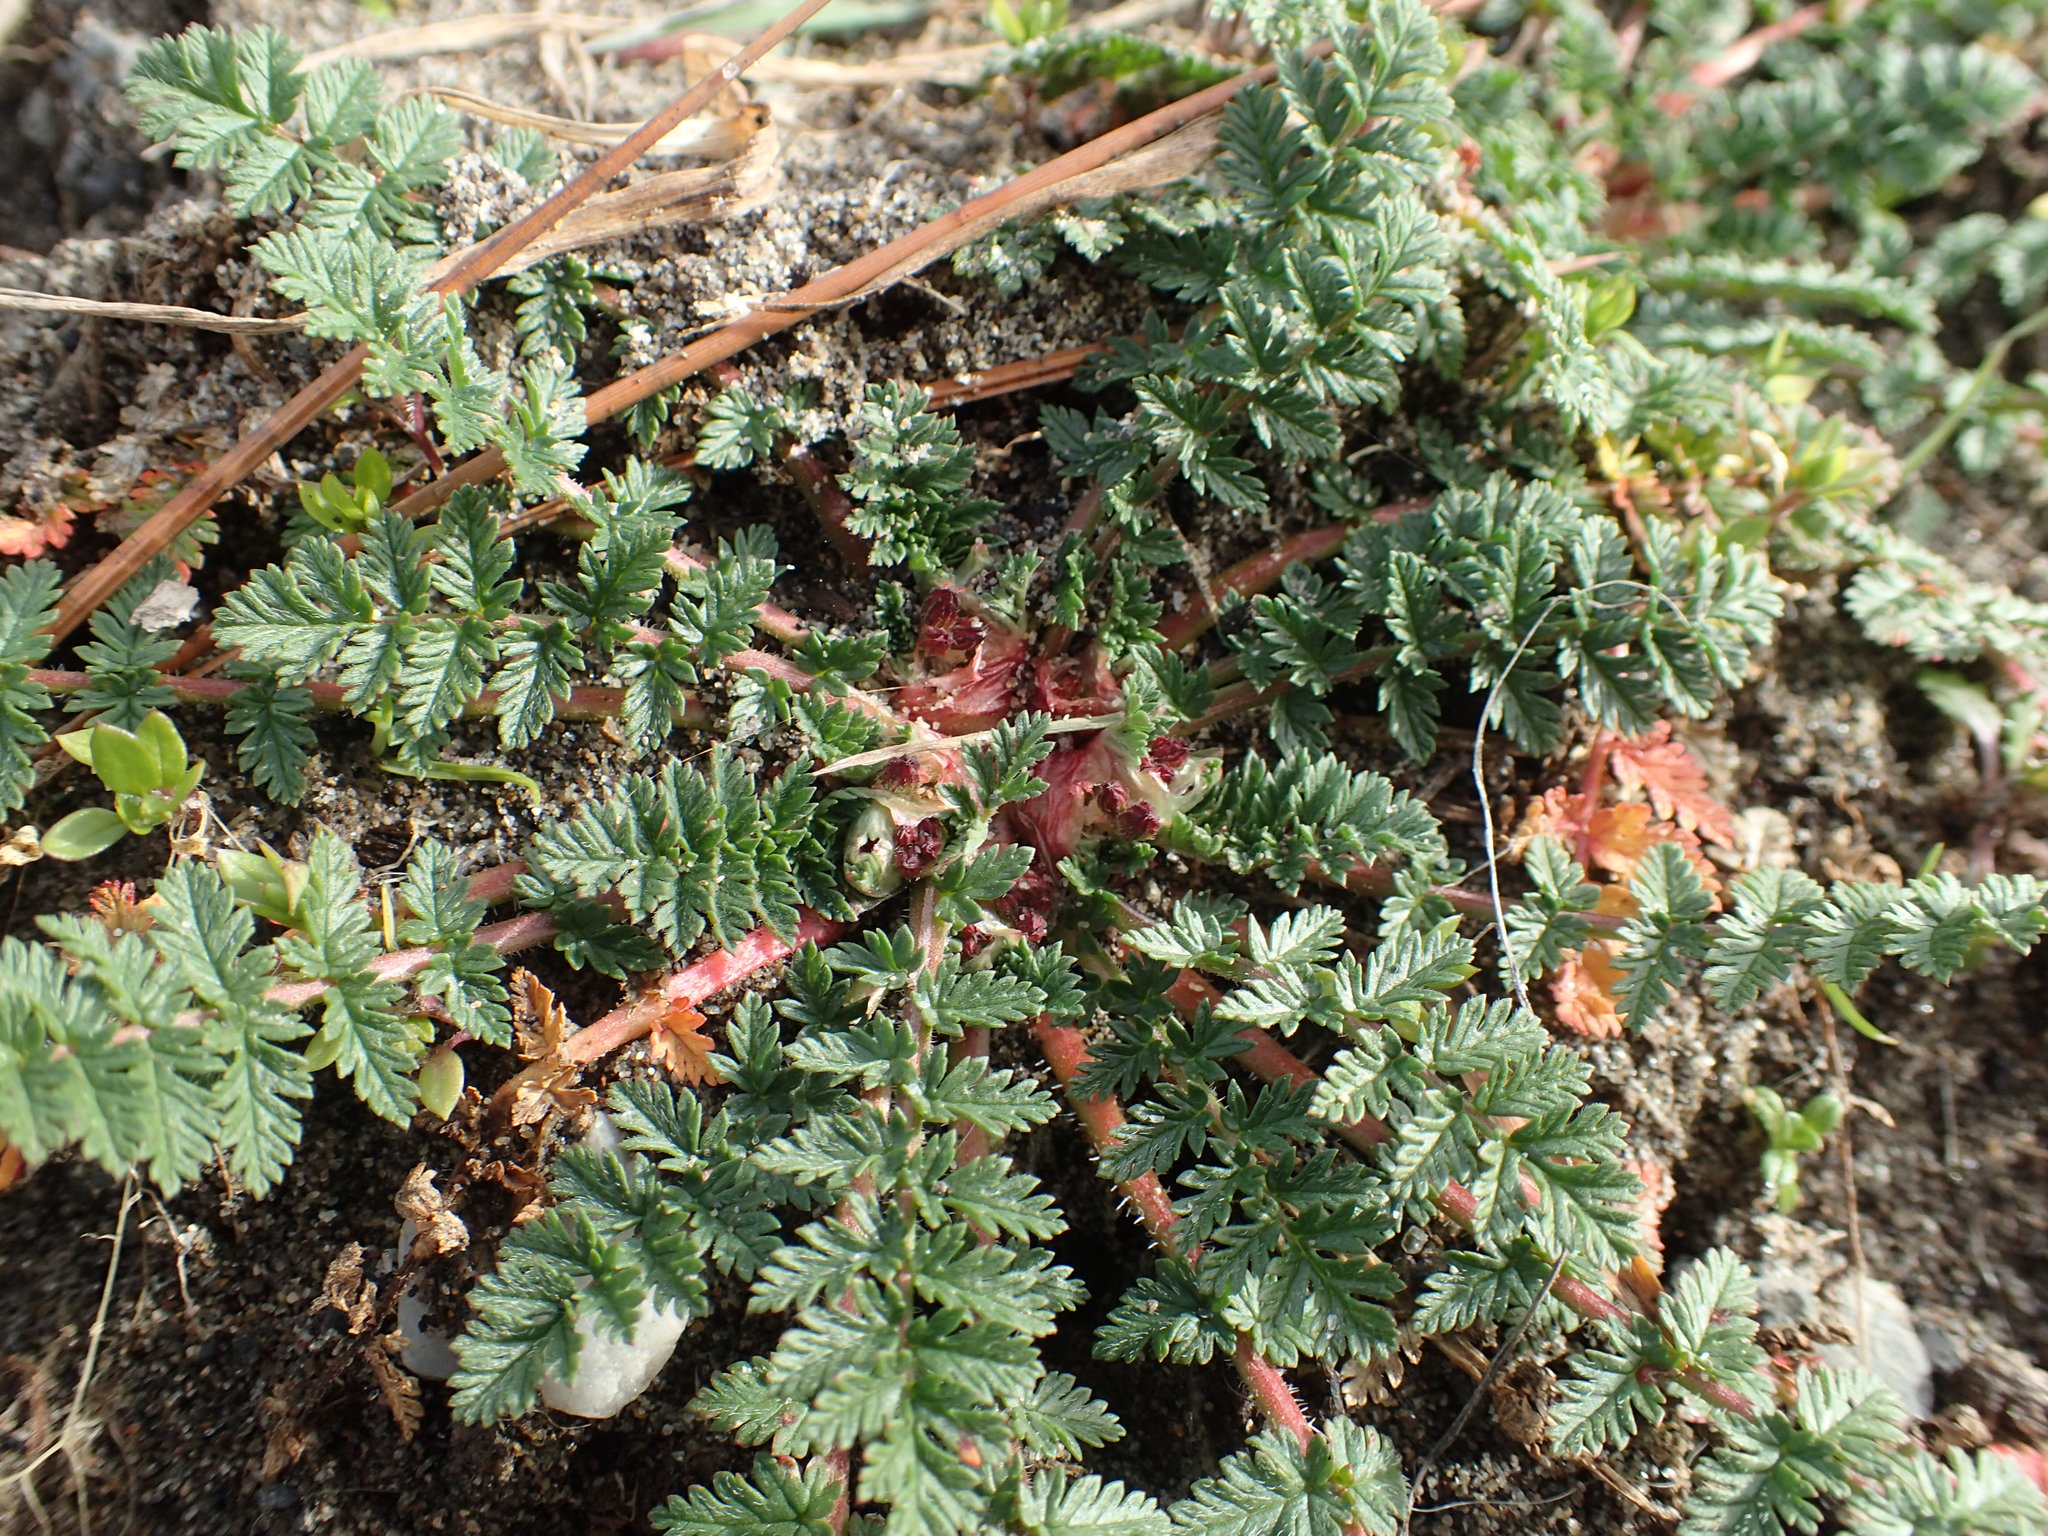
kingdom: Plantae
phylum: Tracheophyta
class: Magnoliopsida
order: Geraniales
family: Geraniaceae
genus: Erodium
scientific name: Erodium cicutarium
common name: Common stork's-bill
